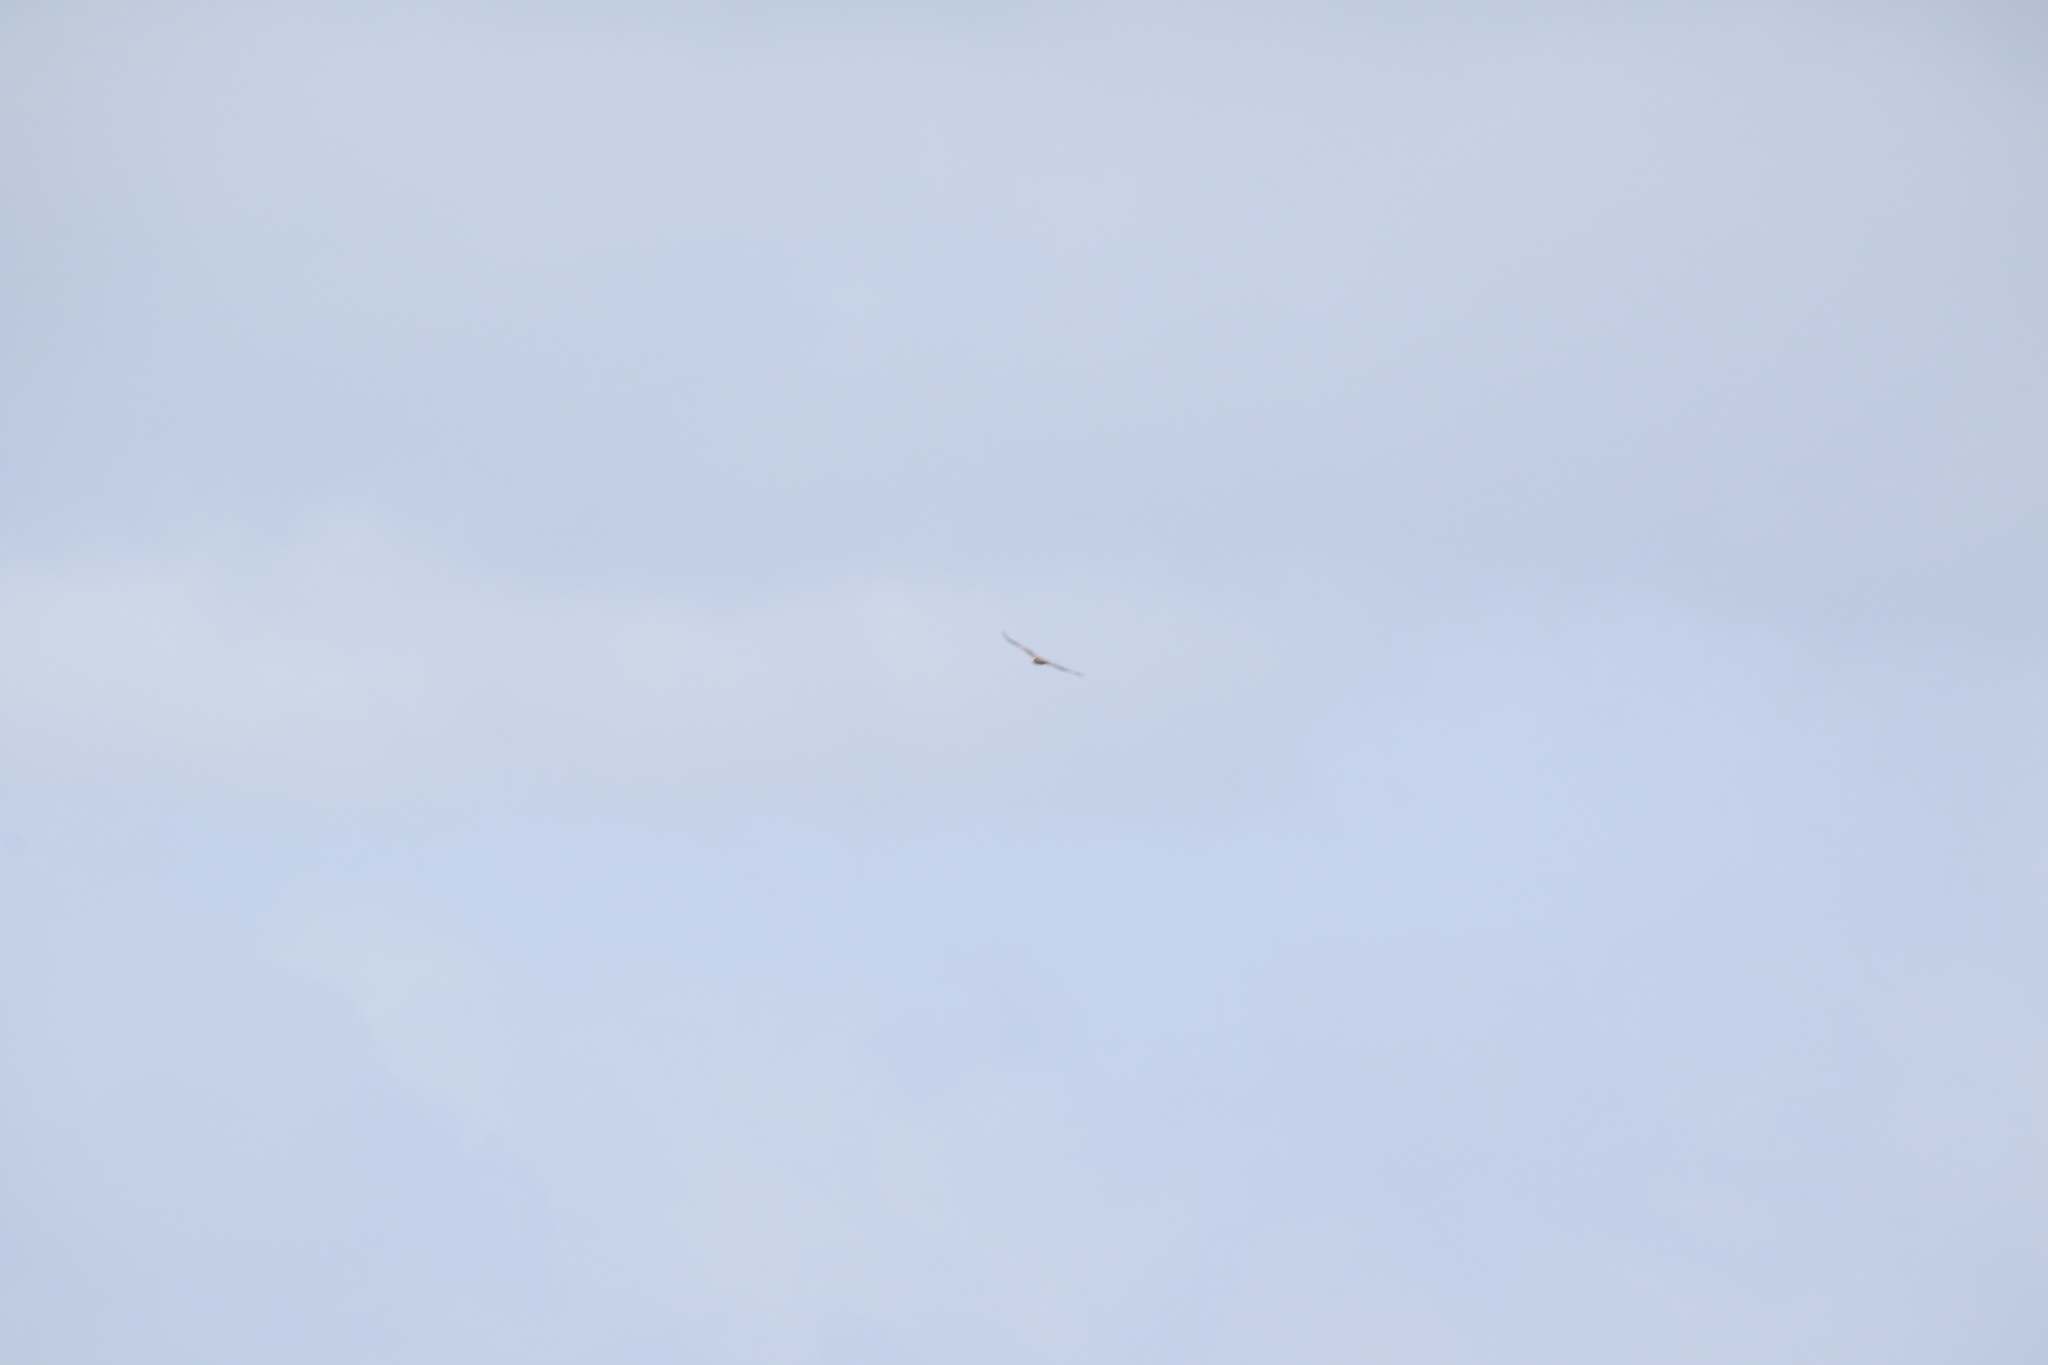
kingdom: Animalia
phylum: Chordata
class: Aves
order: Accipitriformes
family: Accipitridae
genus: Milvus
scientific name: Milvus migrans
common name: Black kite
